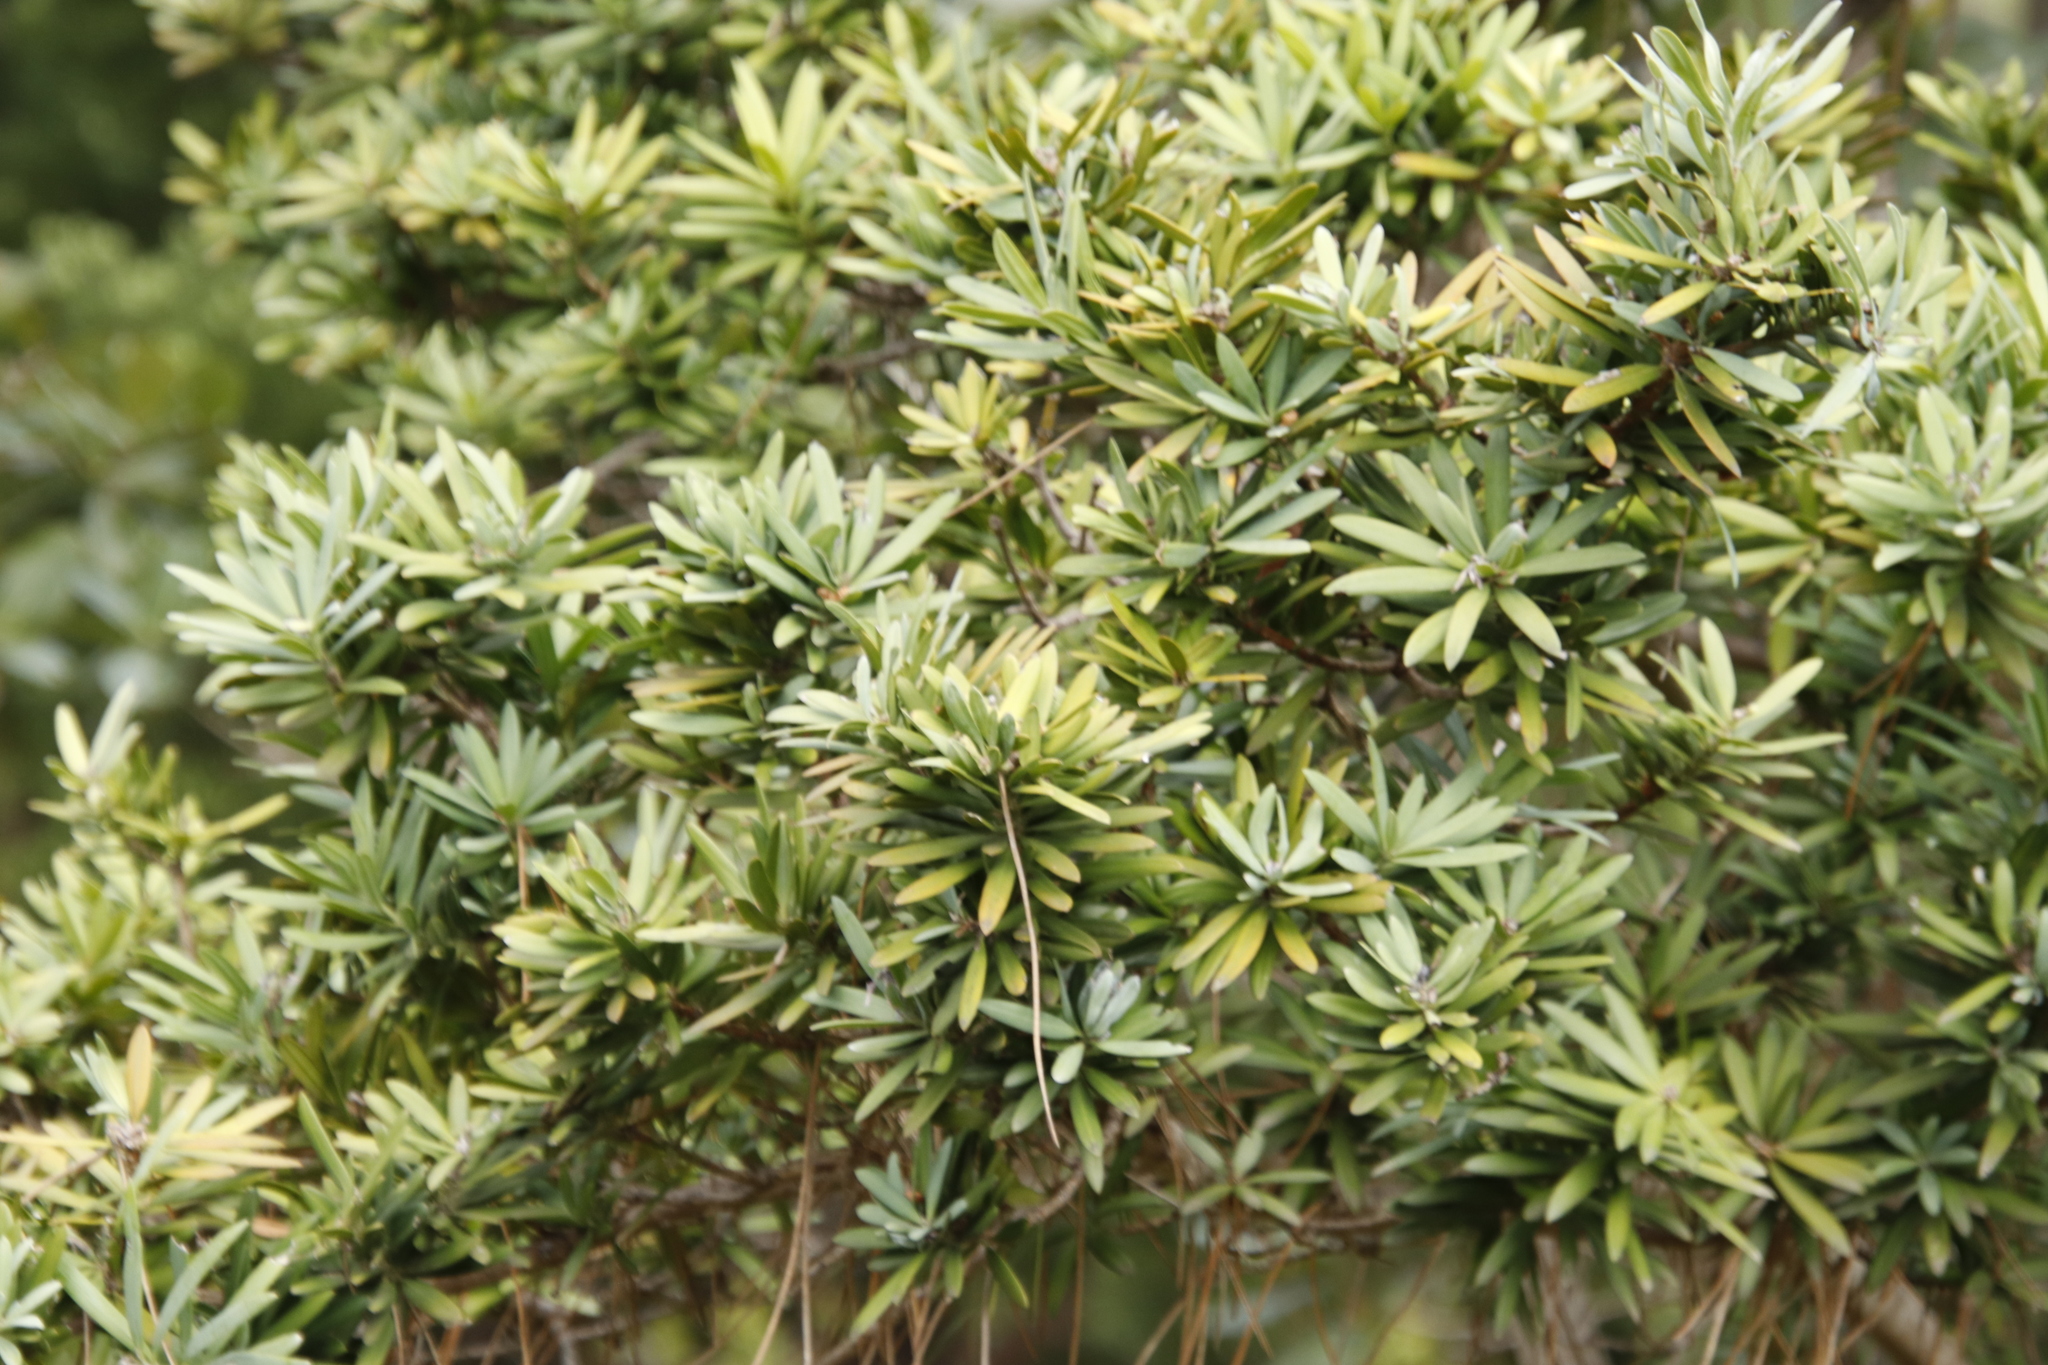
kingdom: Plantae
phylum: Tracheophyta
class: Pinopsida
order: Pinales
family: Podocarpaceae
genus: Podocarpus
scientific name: Podocarpus latifolius
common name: True yellowwood
